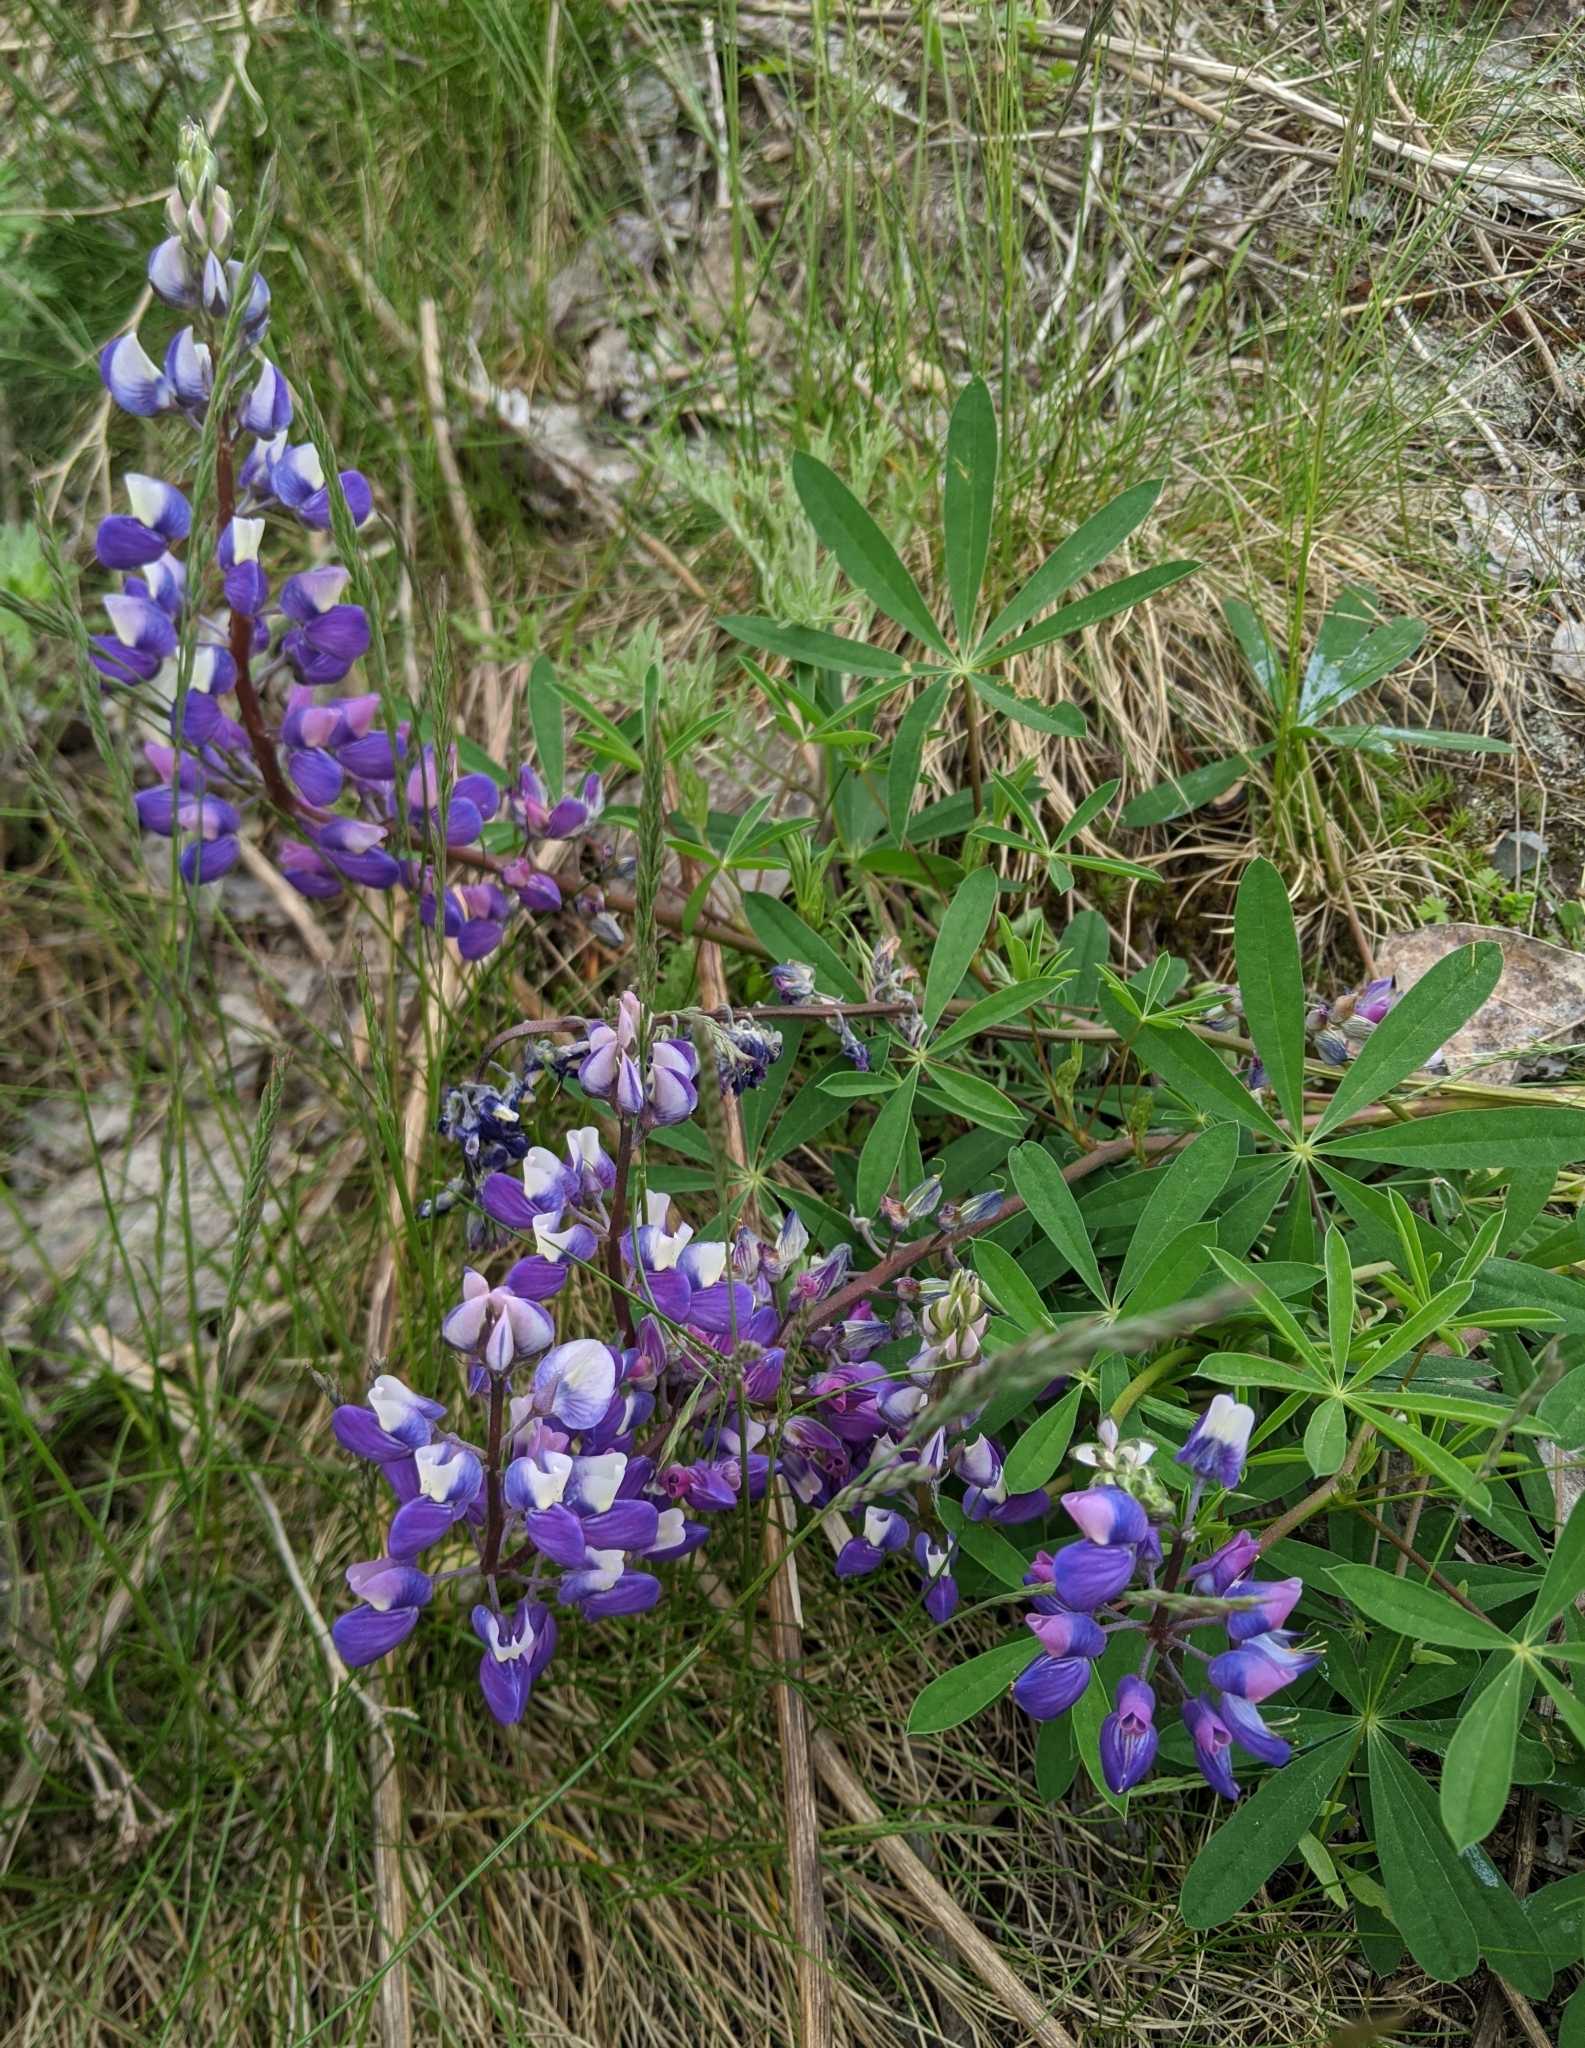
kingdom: Plantae
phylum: Tracheophyta
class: Magnoliopsida
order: Fabales
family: Fabaceae
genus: Lupinus
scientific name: Lupinus arcticus
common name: Arctic lupine
